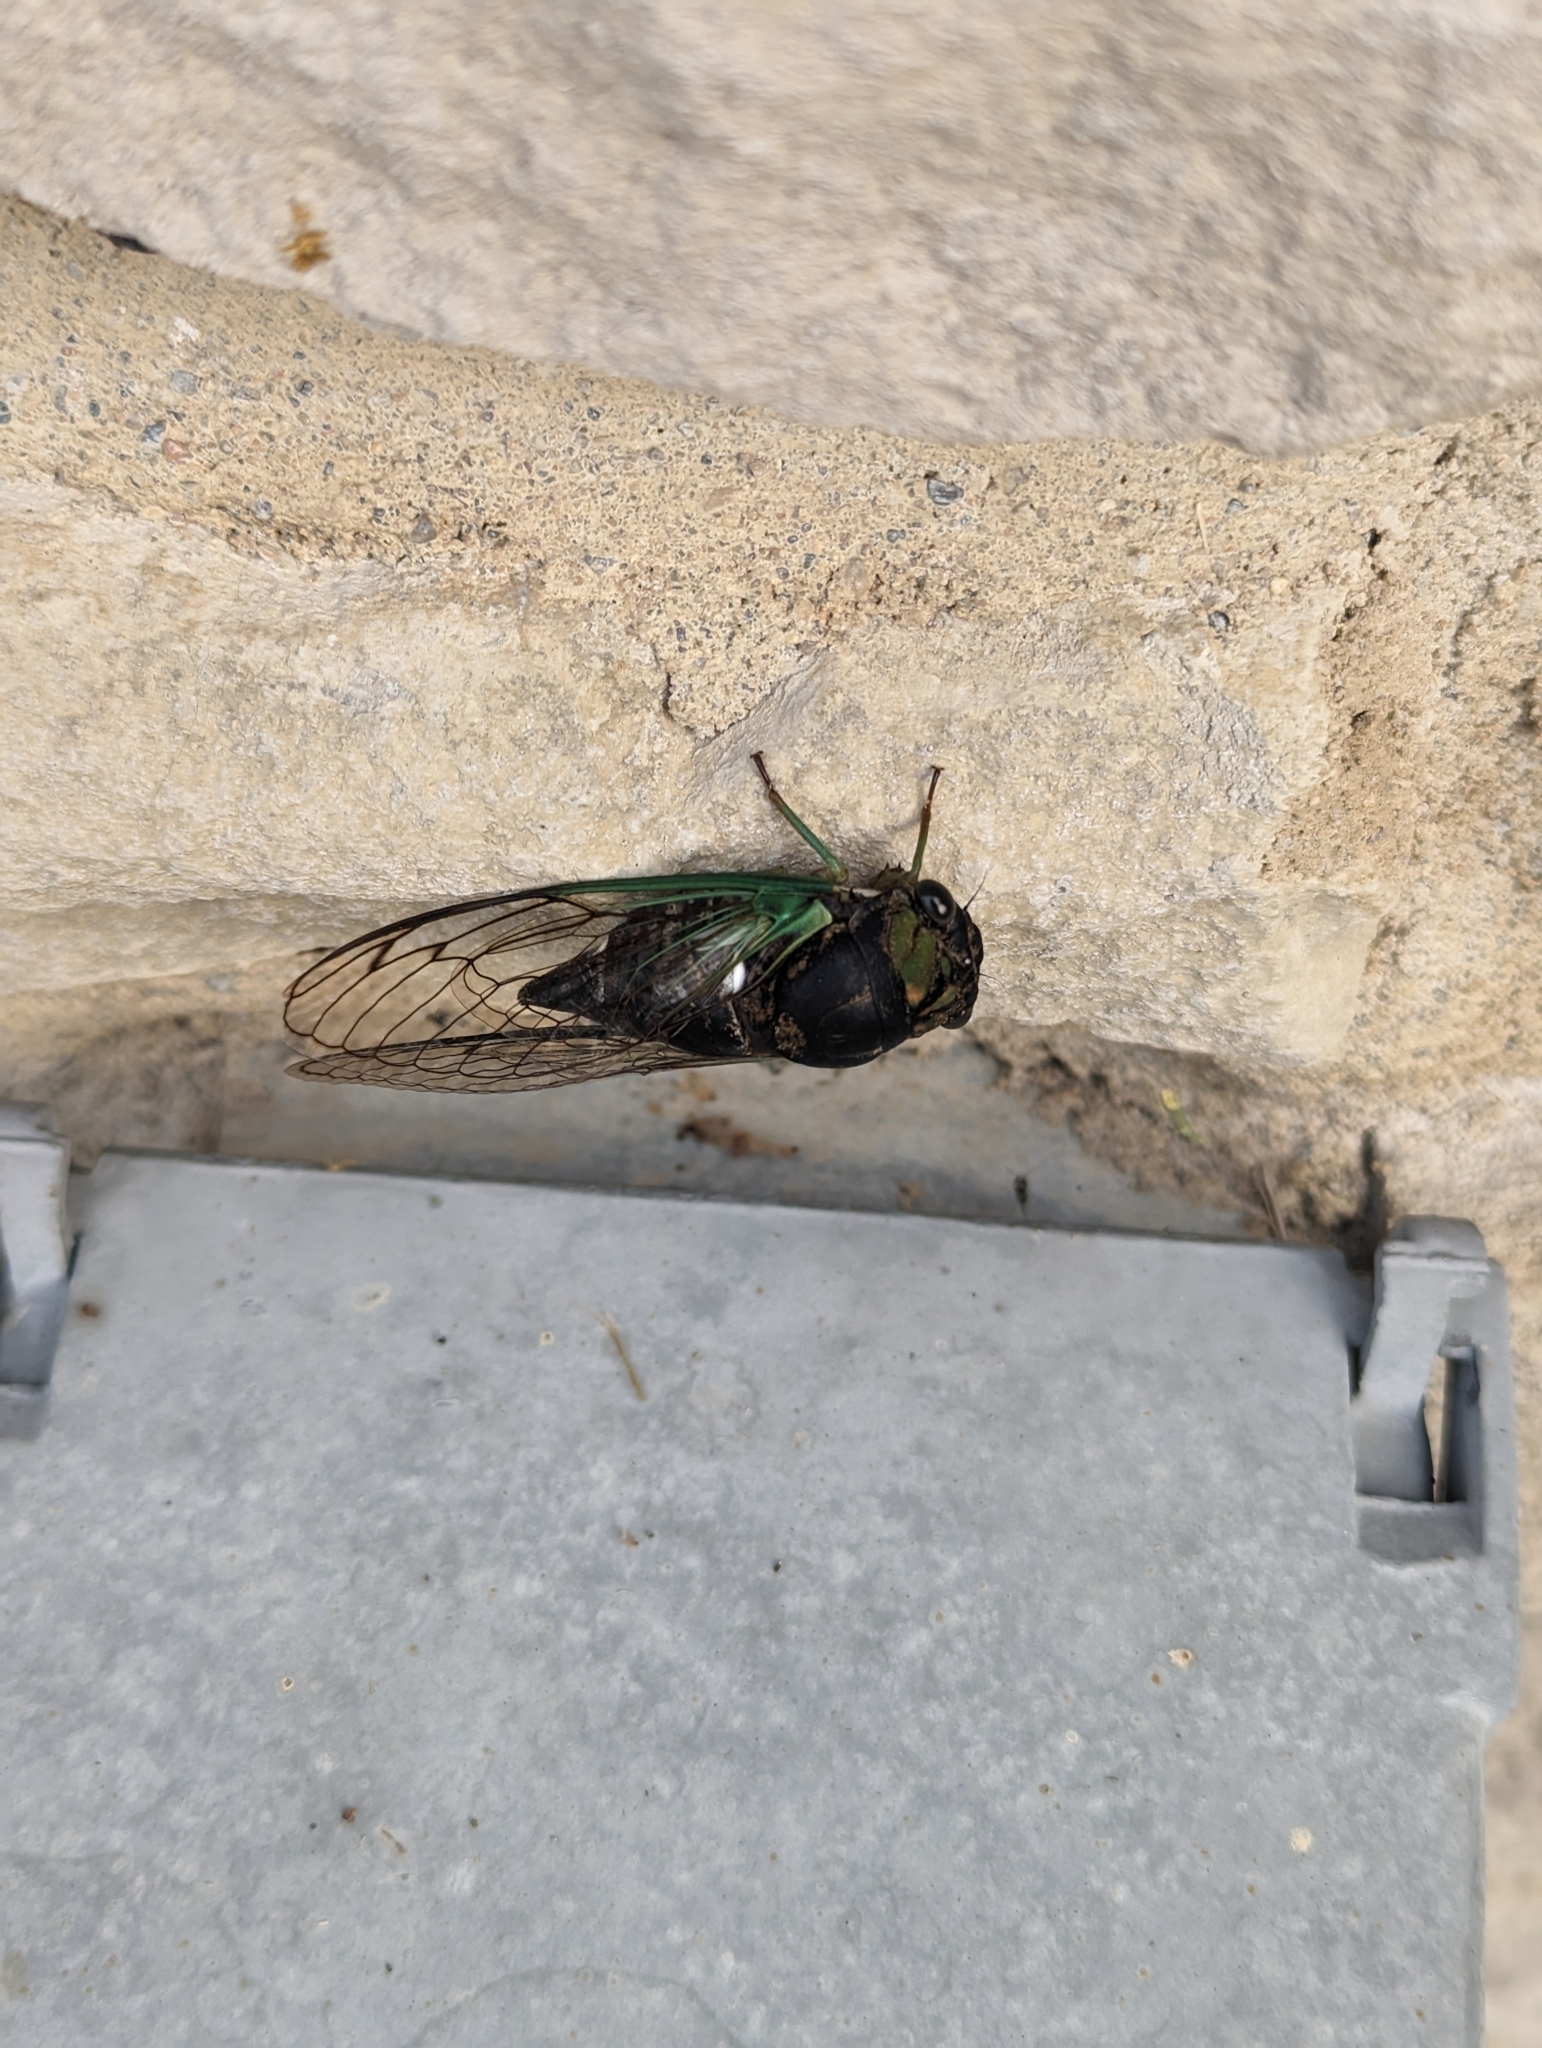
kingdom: Animalia
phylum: Arthropoda
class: Insecta
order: Hemiptera
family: Cicadidae
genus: Neotibicen
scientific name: Neotibicen tibicen
